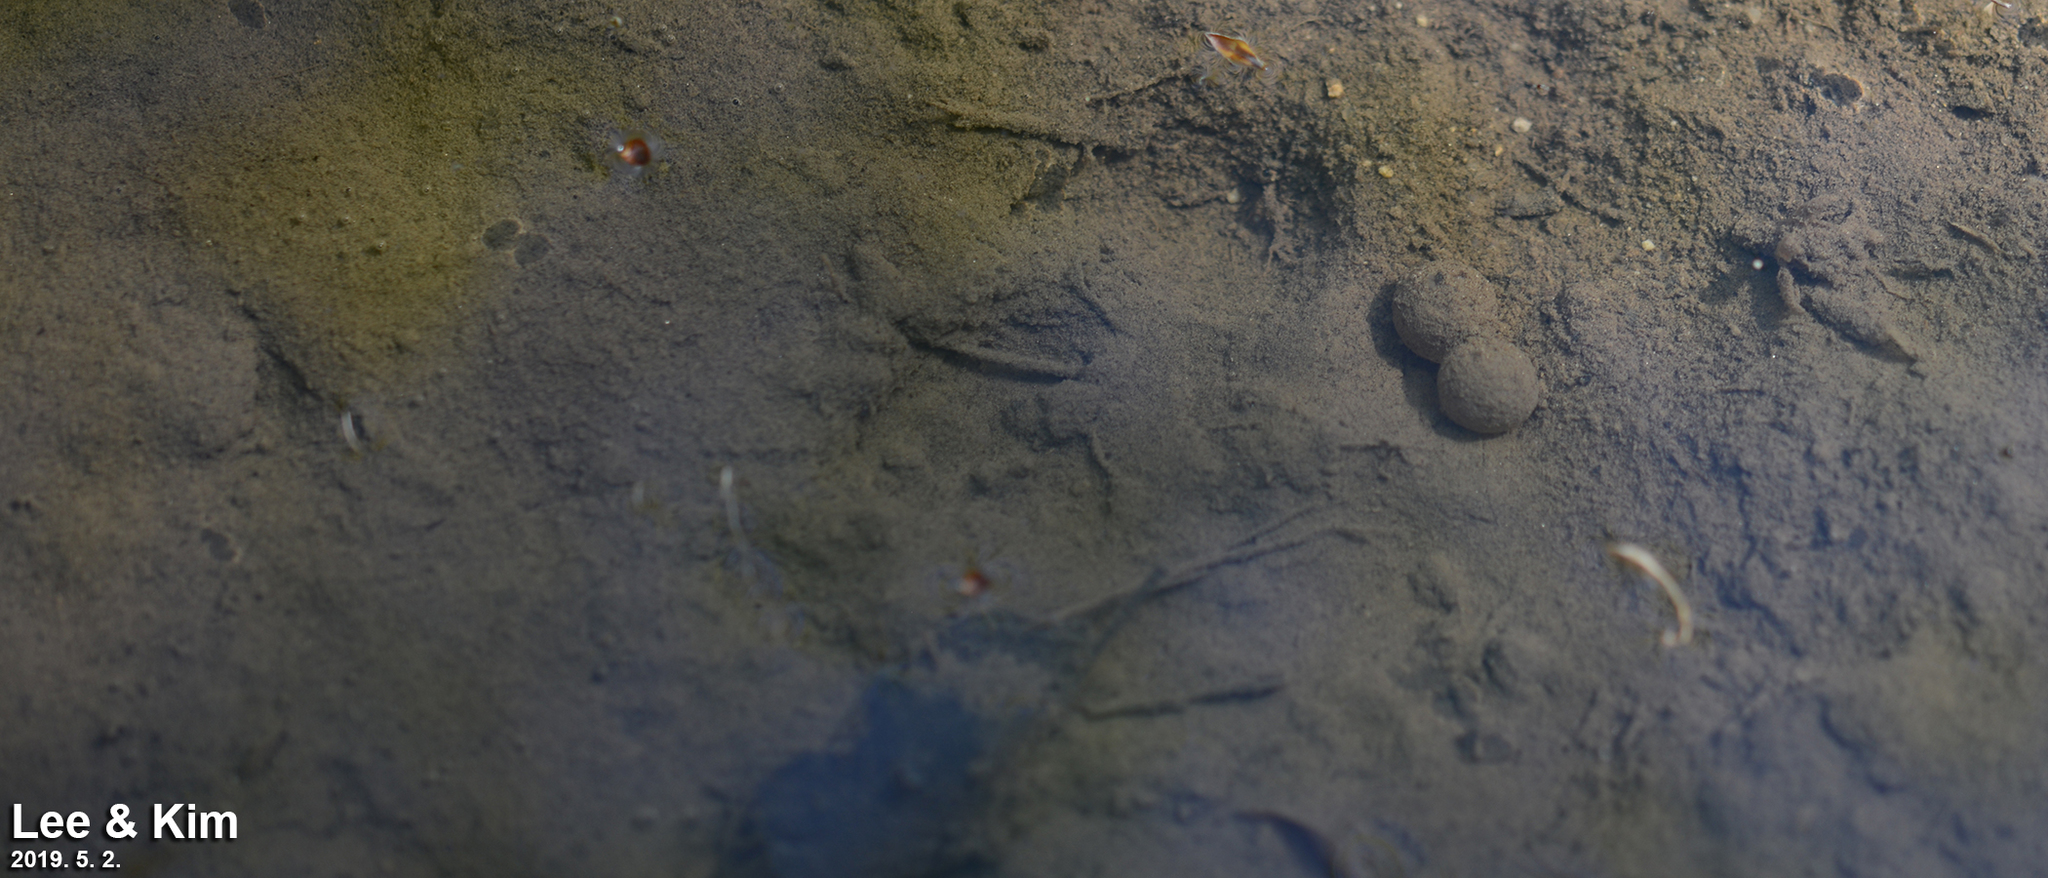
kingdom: Animalia
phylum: Chordata
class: Amphibia
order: Anura
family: Bombinatoridae
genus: Bombina
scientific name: Bombina orientalis
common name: Oriental firebelly toad
